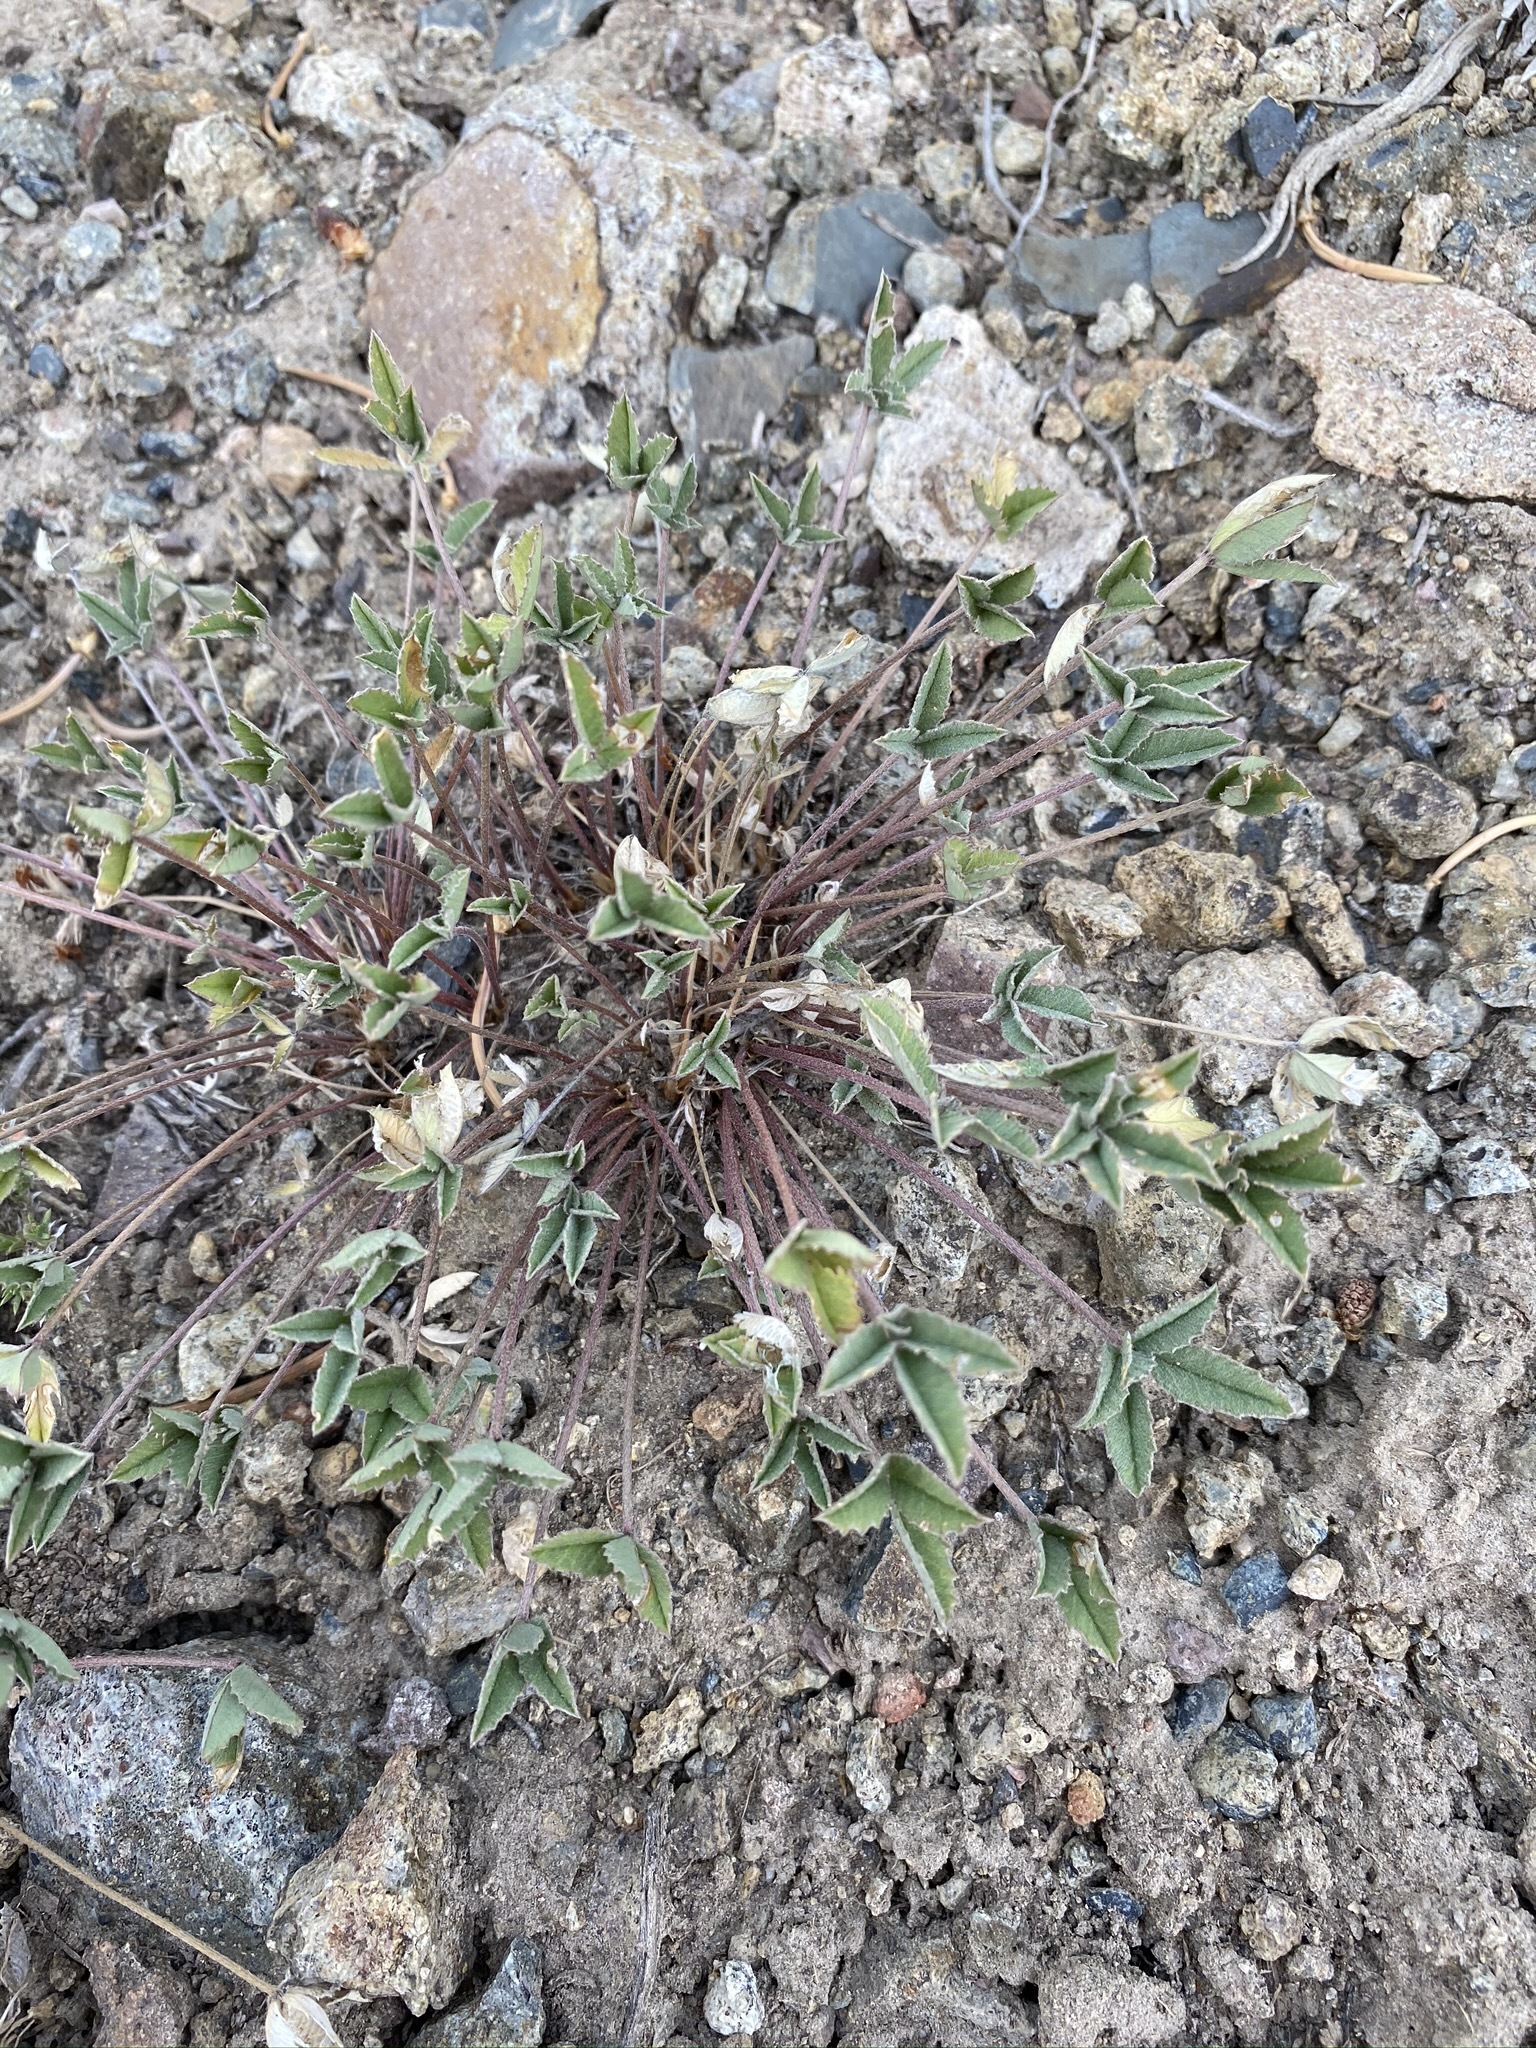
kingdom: Plantae
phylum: Tracheophyta
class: Magnoliopsida
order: Fabales
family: Fabaceae
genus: Trifolium
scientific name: Trifolium gymnocarpon
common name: Tufted clover
